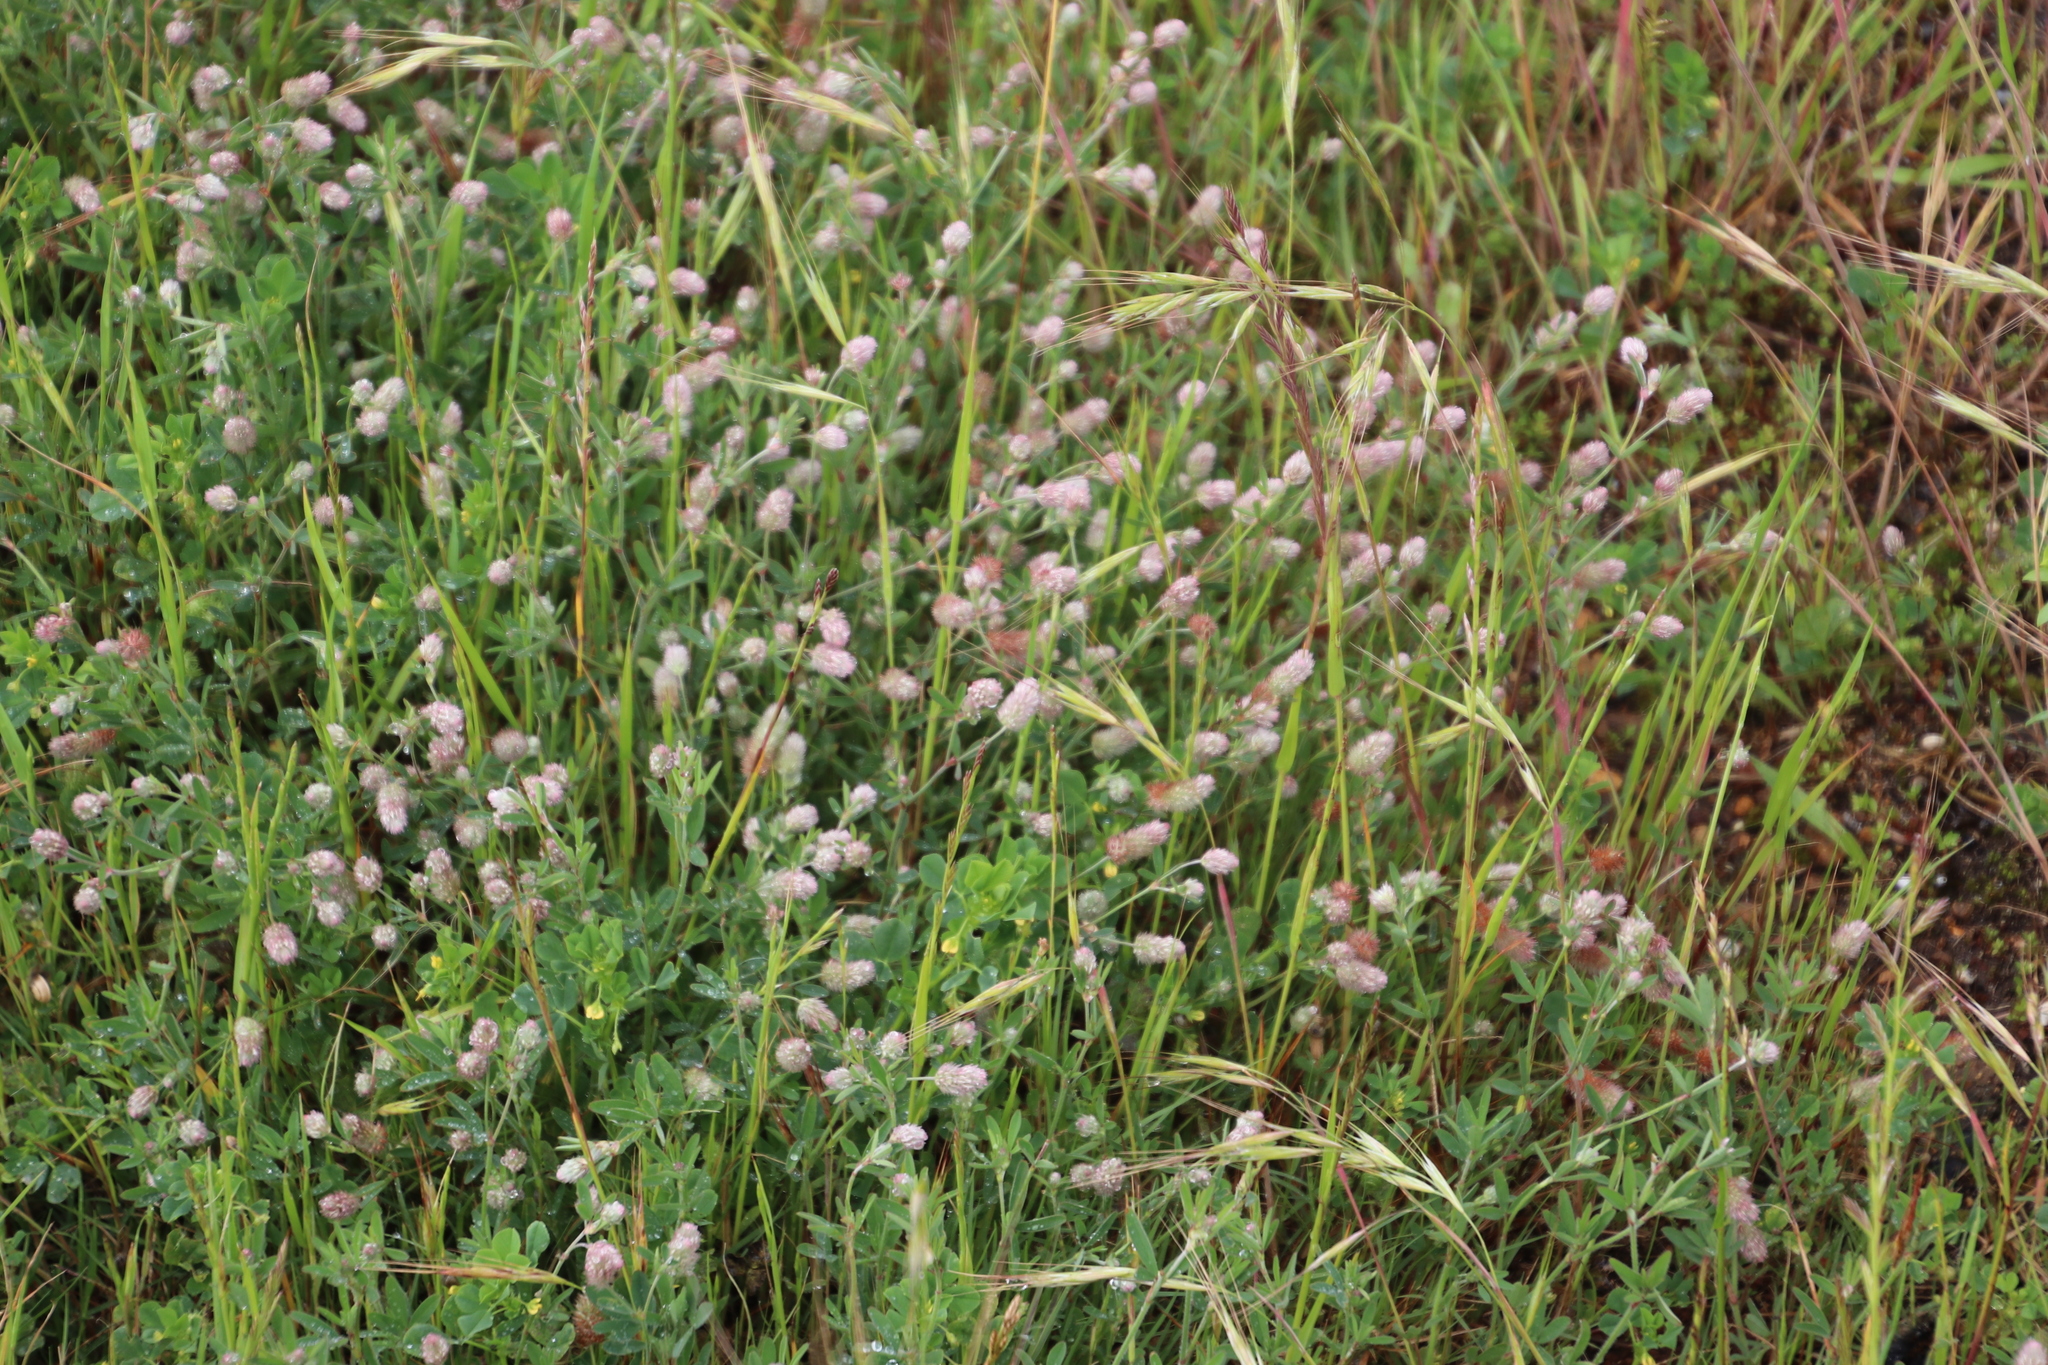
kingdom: Plantae
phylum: Tracheophyta
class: Magnoliopsida
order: Fabales
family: Fabaceae
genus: Trifolium
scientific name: Trifolium arvense
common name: Hare's-foot clover
